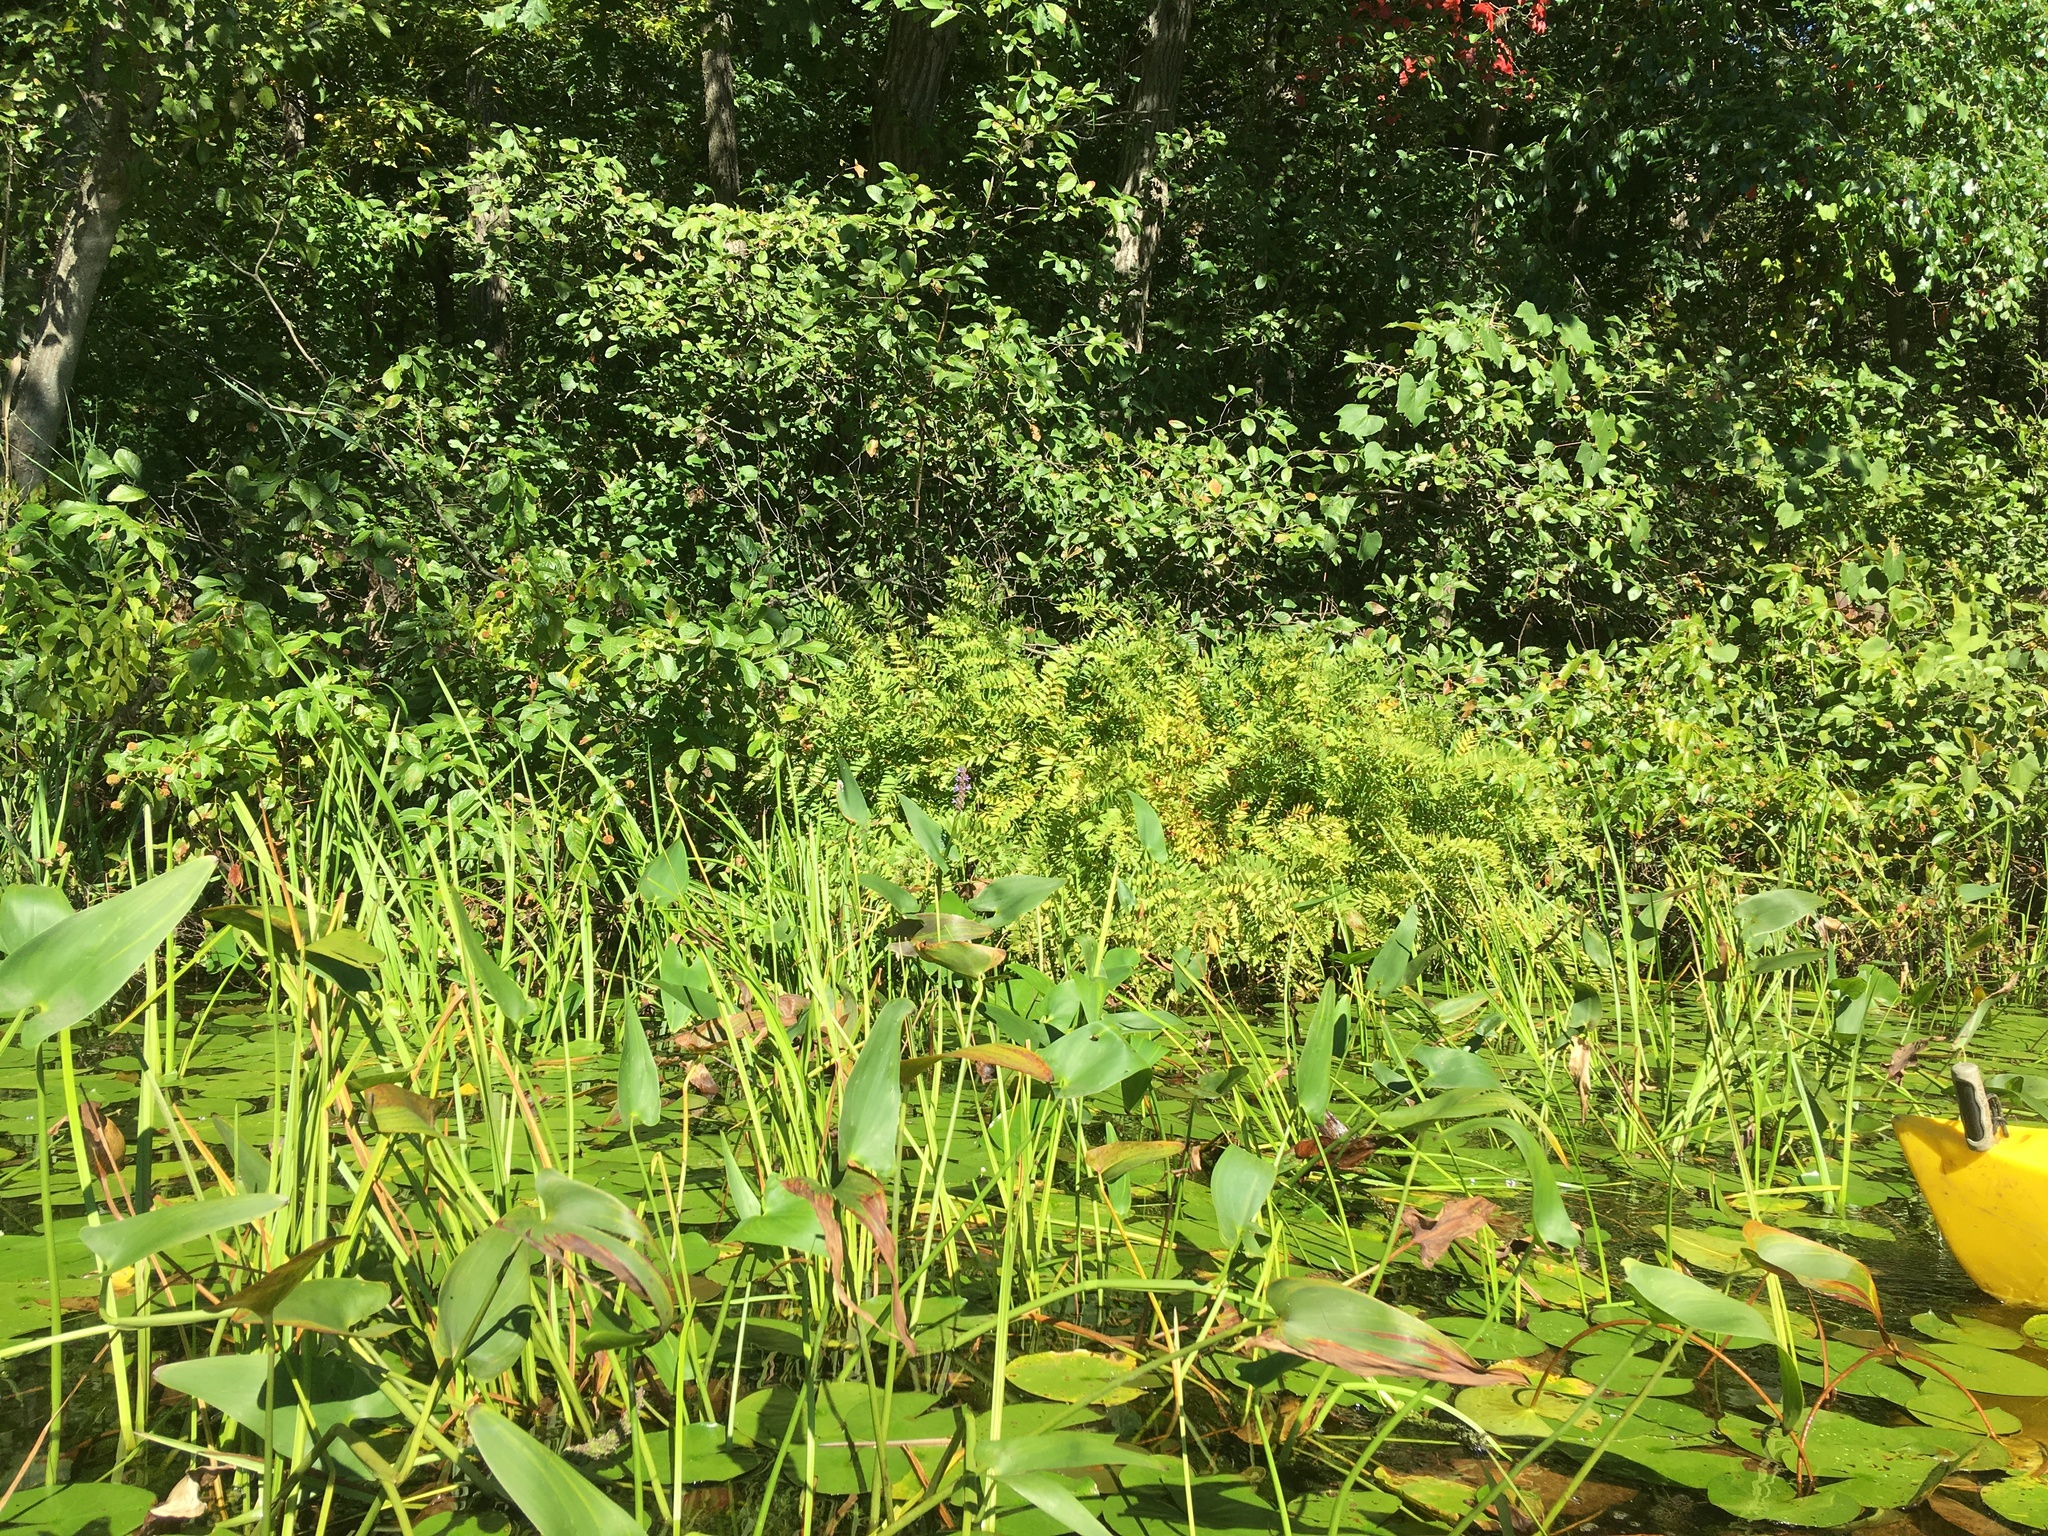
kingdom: Plantae
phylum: Tracheophyta
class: Liliopsida
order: Commelinales
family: Pontederiaceae
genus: Pontederia
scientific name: Pontederia cordata
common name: Pickerelweed
